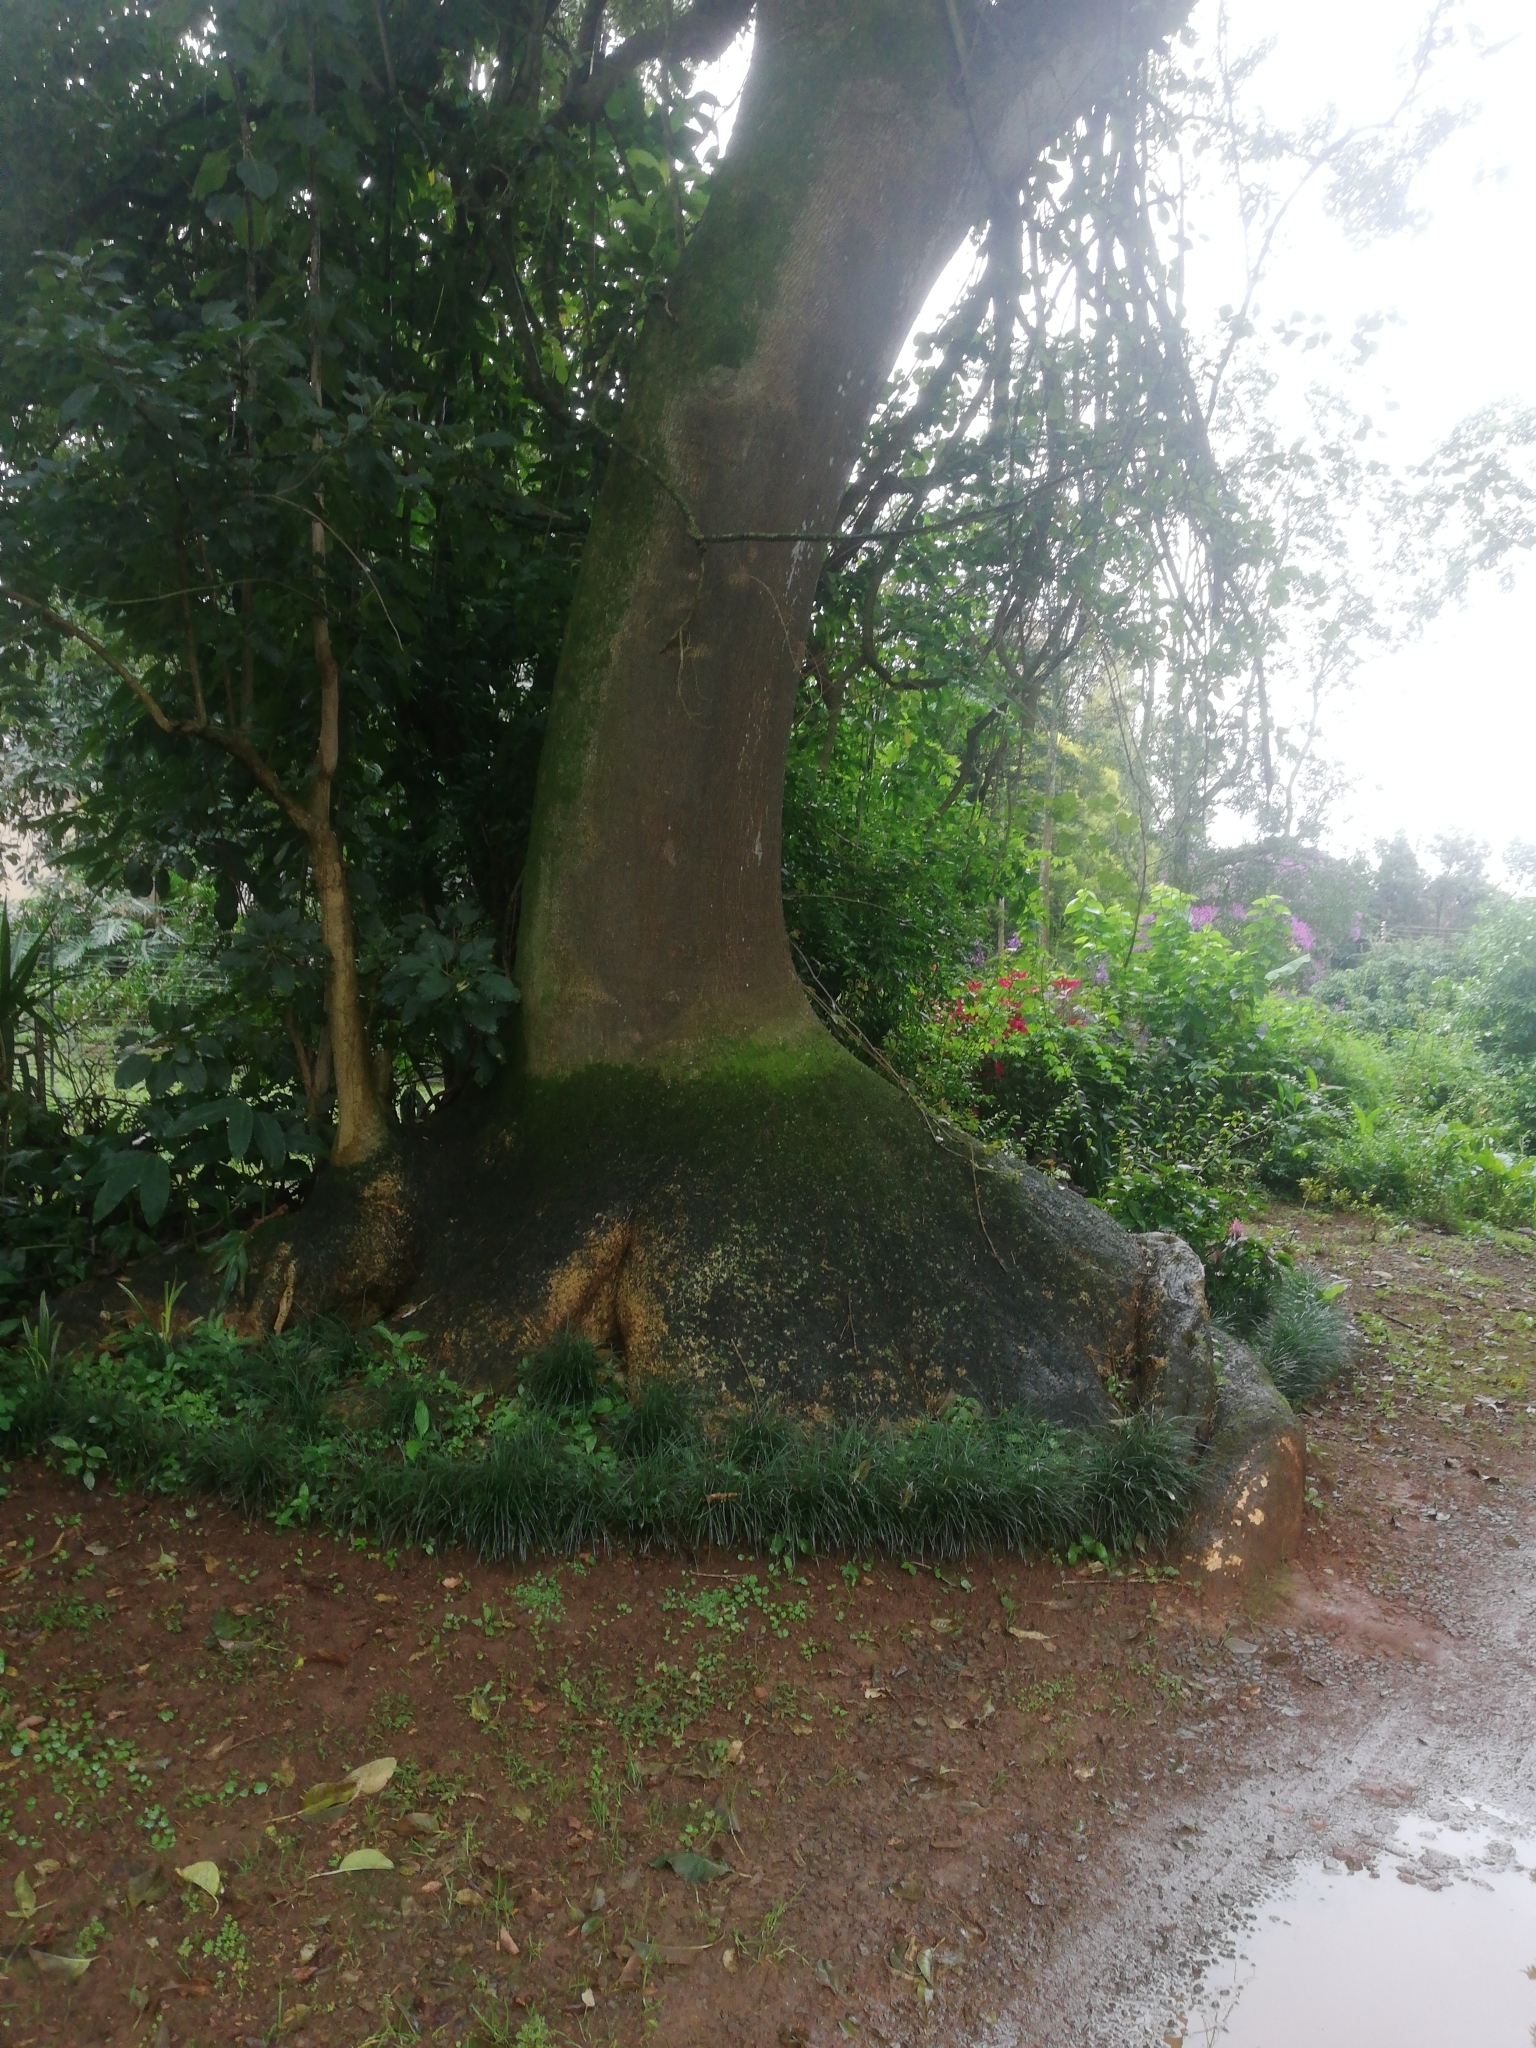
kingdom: Plantae
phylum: Tracheophyta
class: Magnoliopsida
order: Caryophyllales
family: Phytolaccaceae
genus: Phytolacca
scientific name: Phytolacca dioica
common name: Pokeweed
